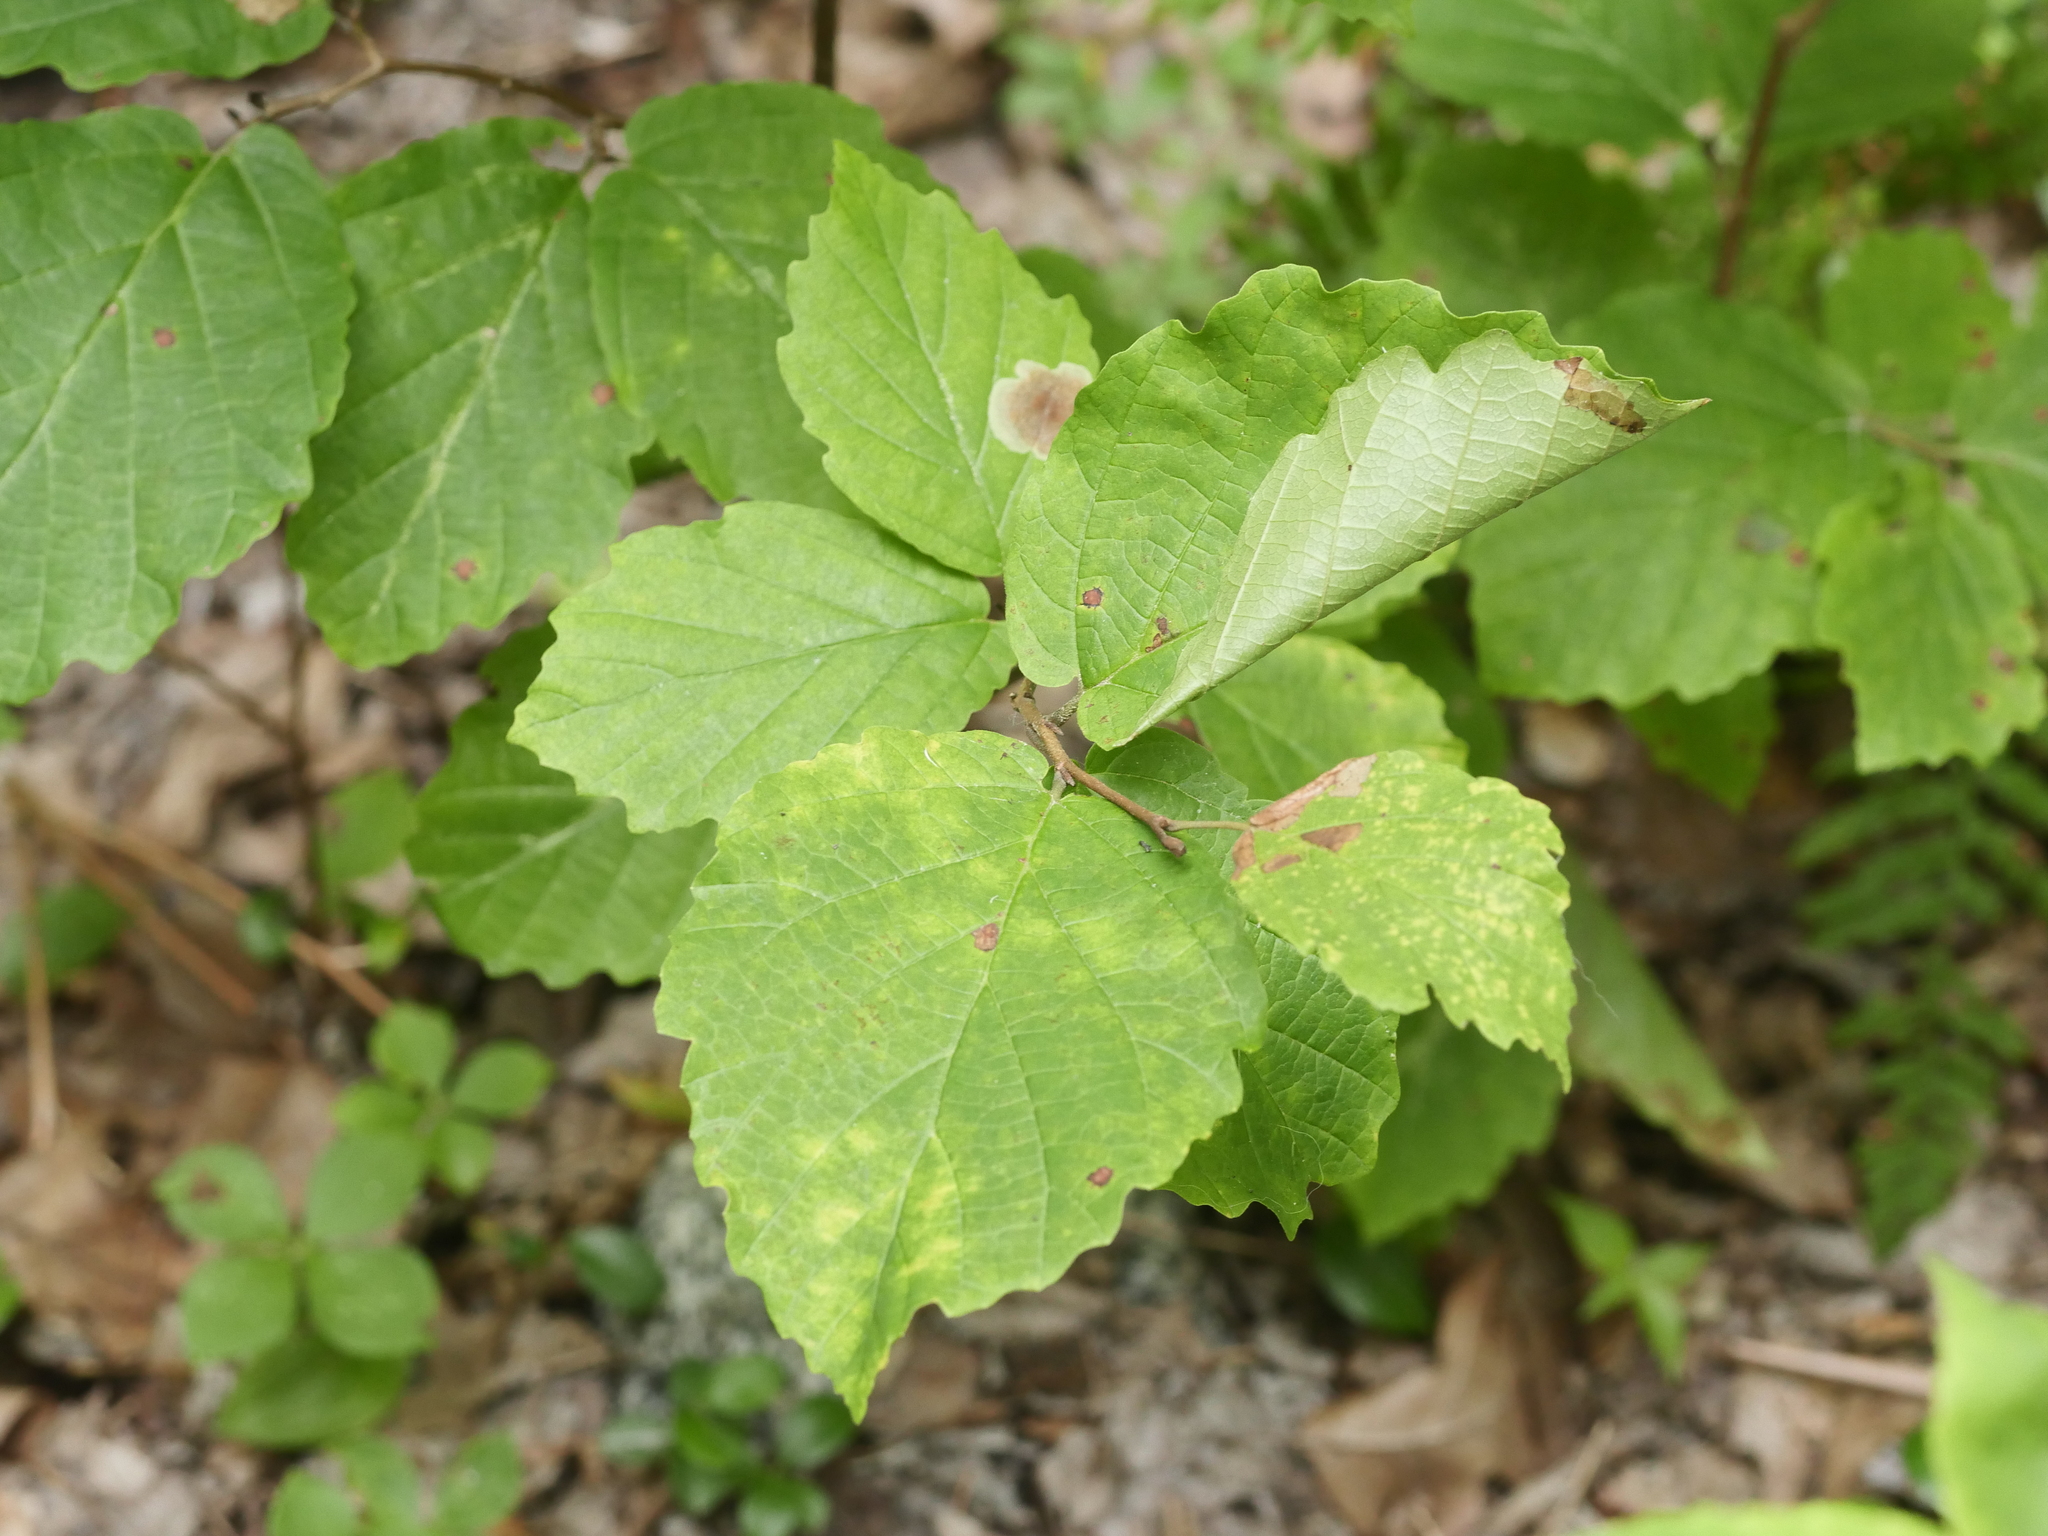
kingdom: Plantae
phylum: Tracheophyta
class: Magnoliopsida
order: Saxifragales
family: Hamamelidaceae
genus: Hamamelis
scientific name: Hamamelis virginiana
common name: Witch-hazel
